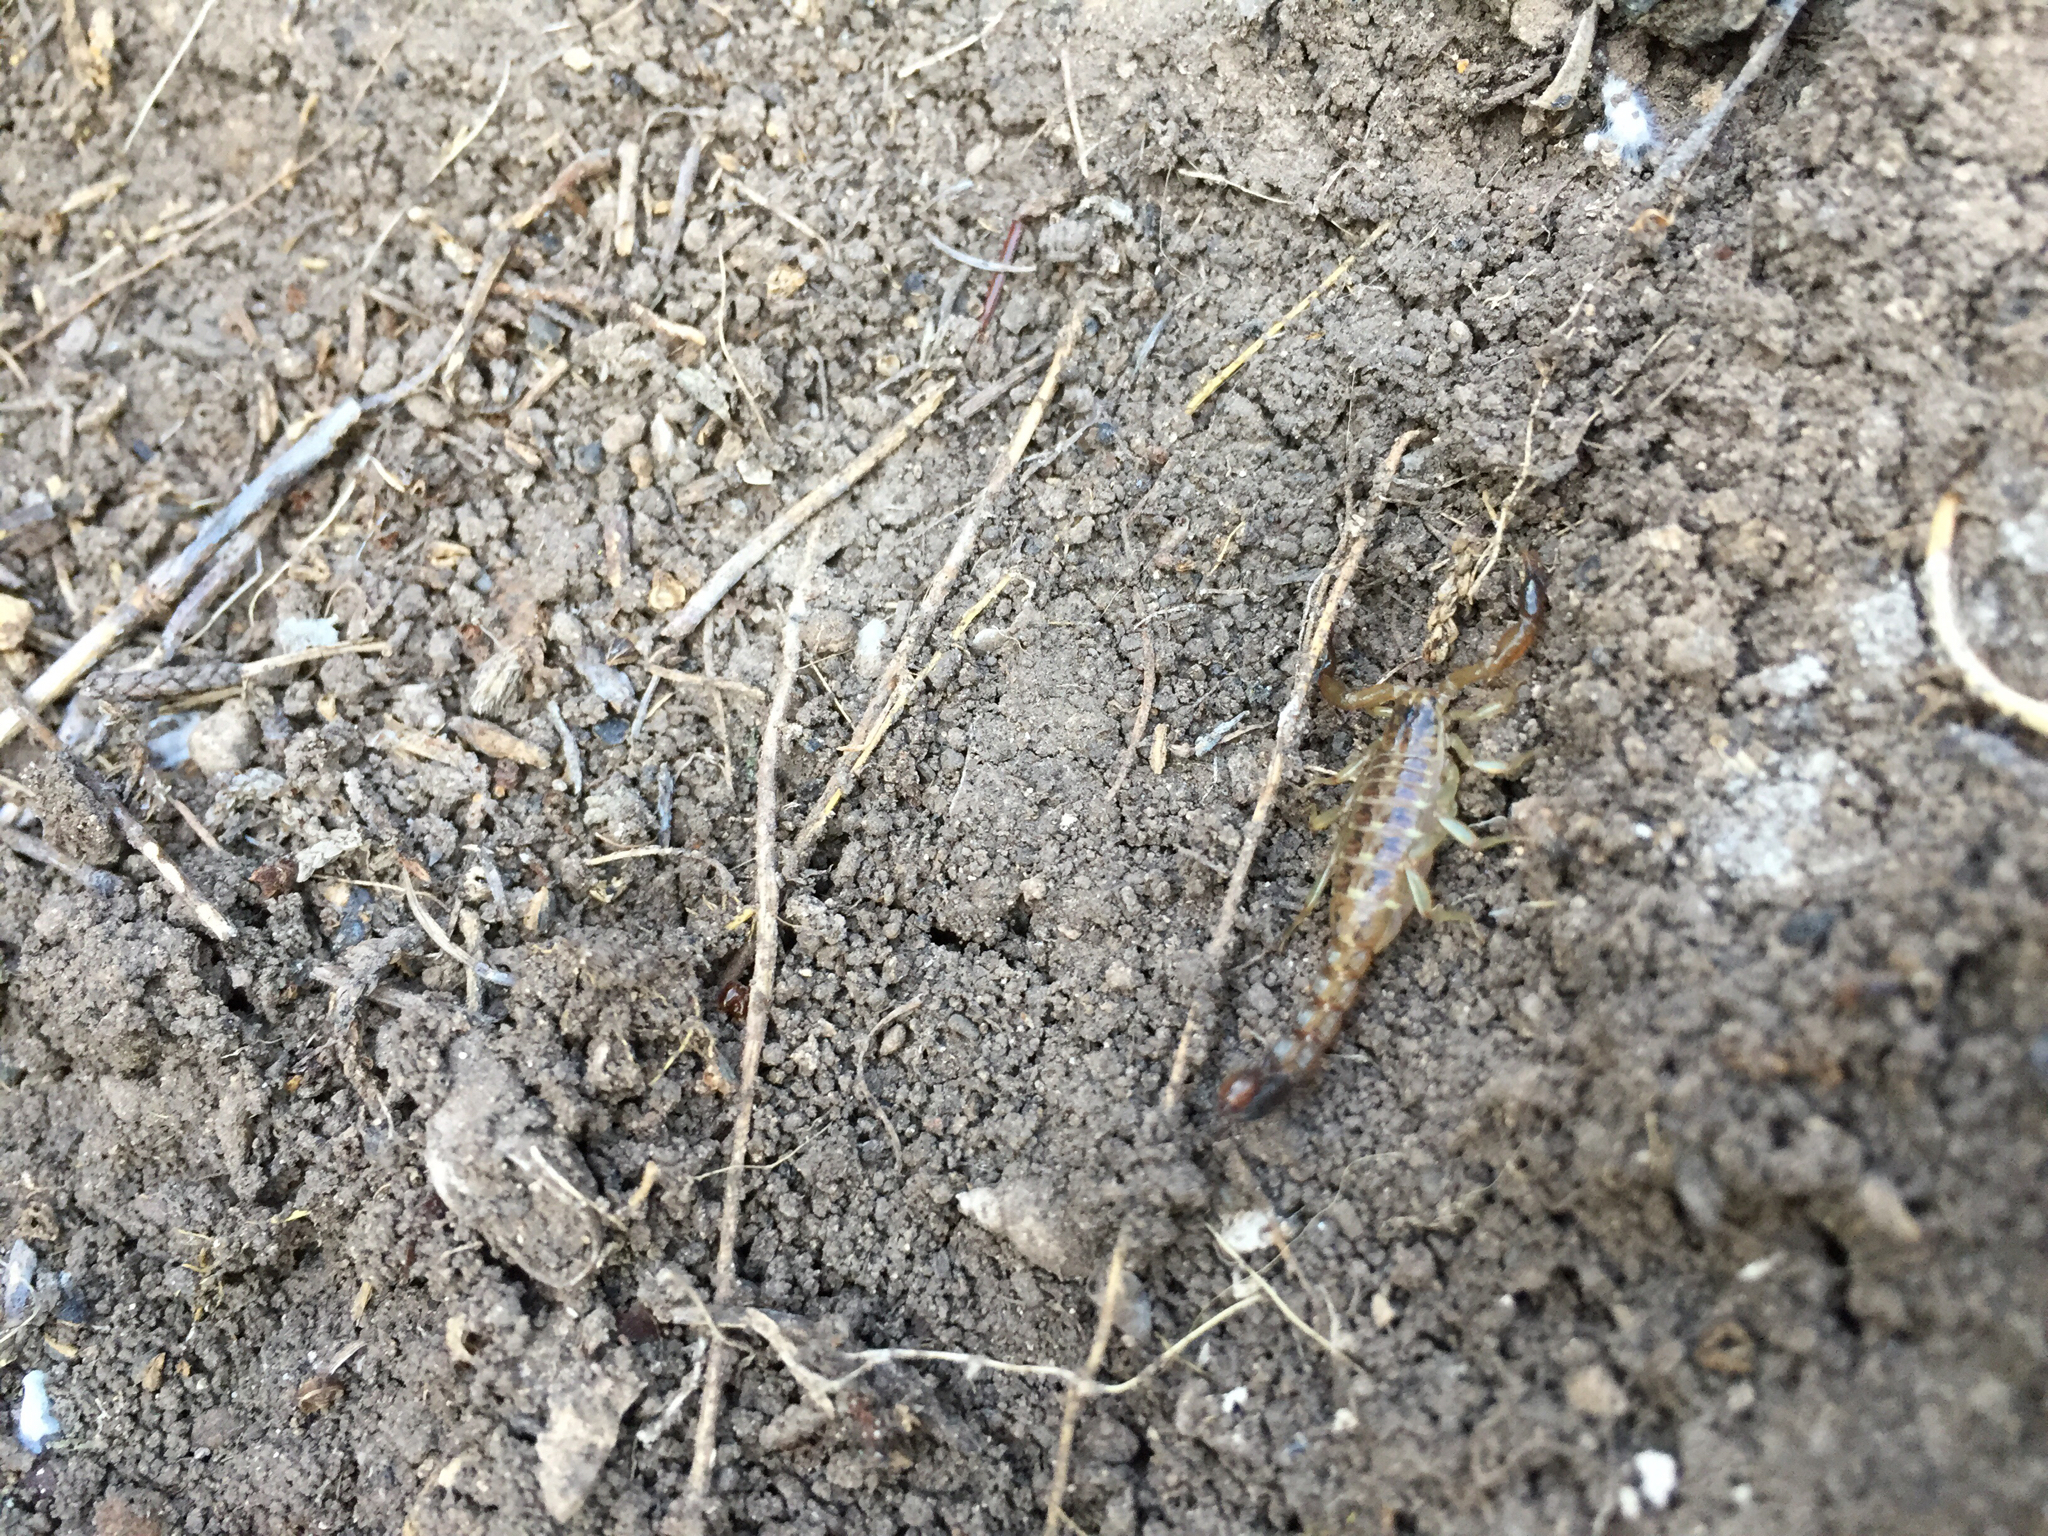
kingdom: Animalia
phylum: Arthropoda
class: Arachnida
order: Scorpiones
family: Vaejovidae
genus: Maaykuyak
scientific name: Maaykuyak waueri
